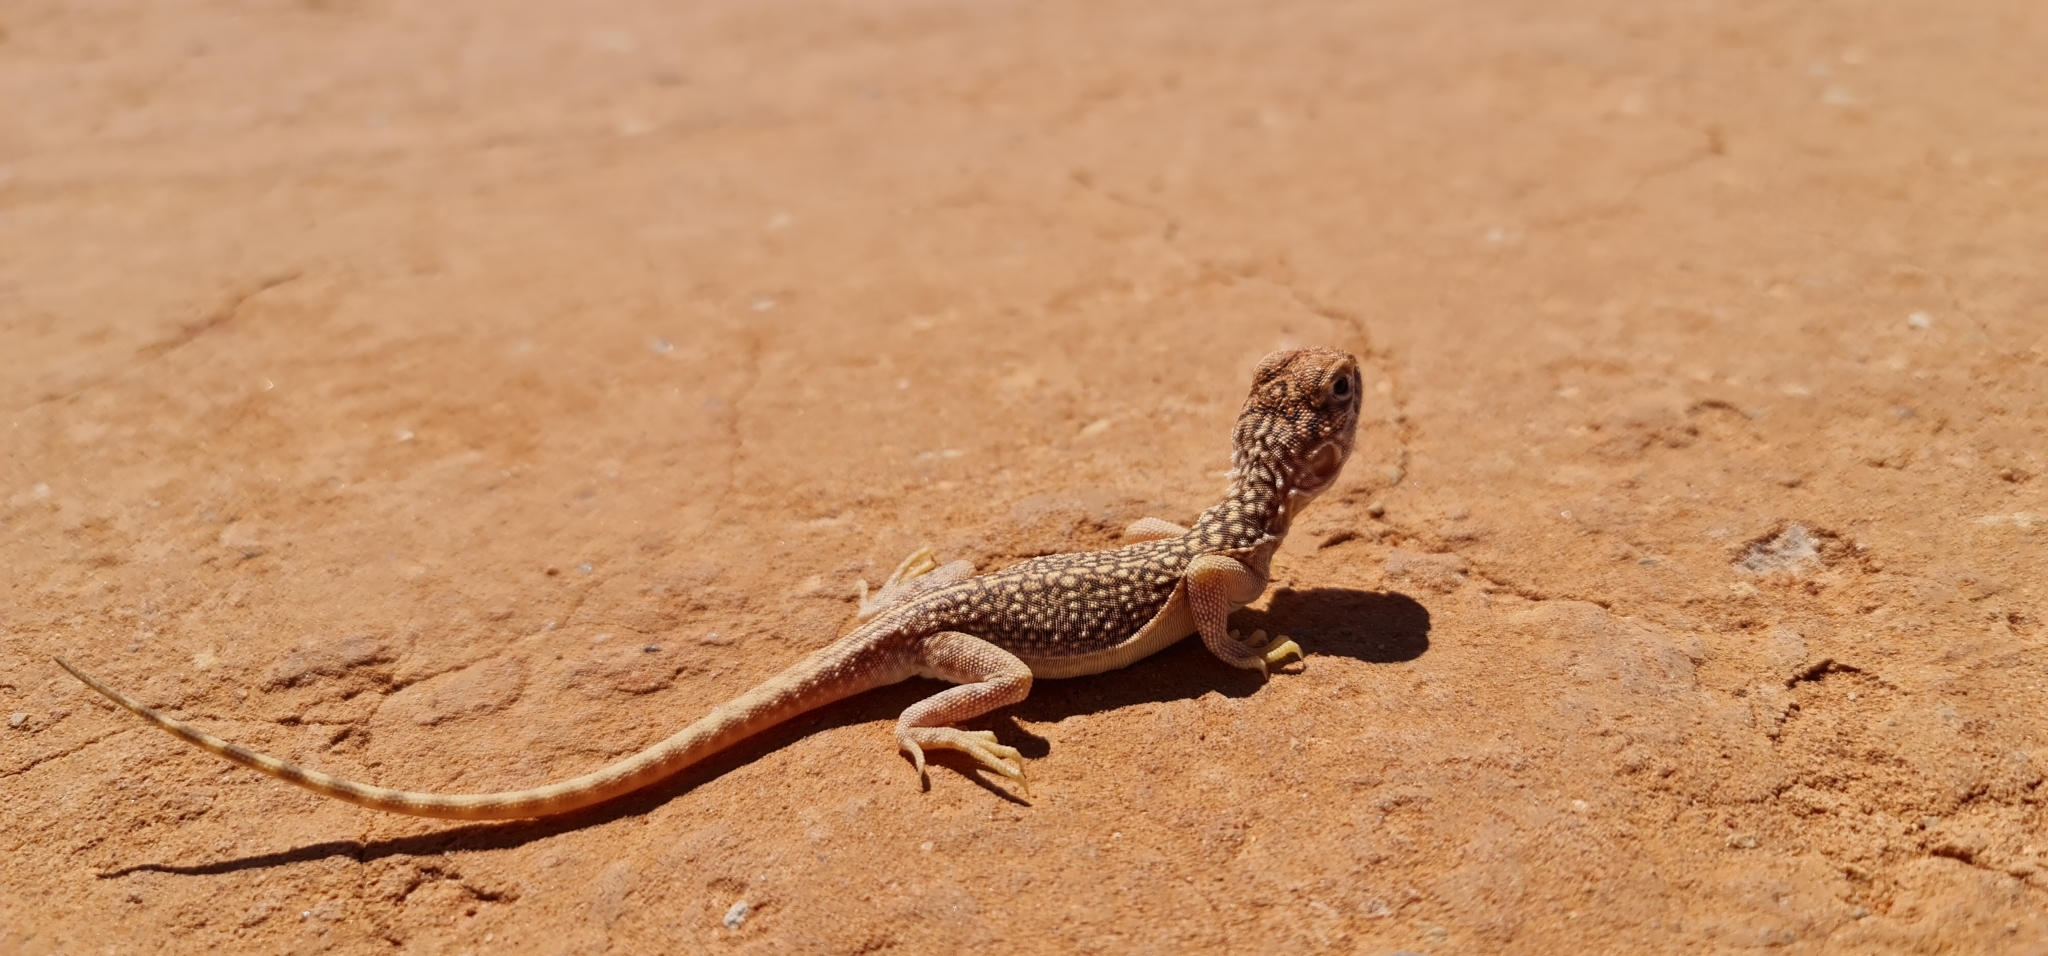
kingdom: Animalia
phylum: Chordata
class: Squamata
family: Agamidae
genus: Ctenophorus
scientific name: Ctenophorus nuchalis
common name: Central netted dragon
